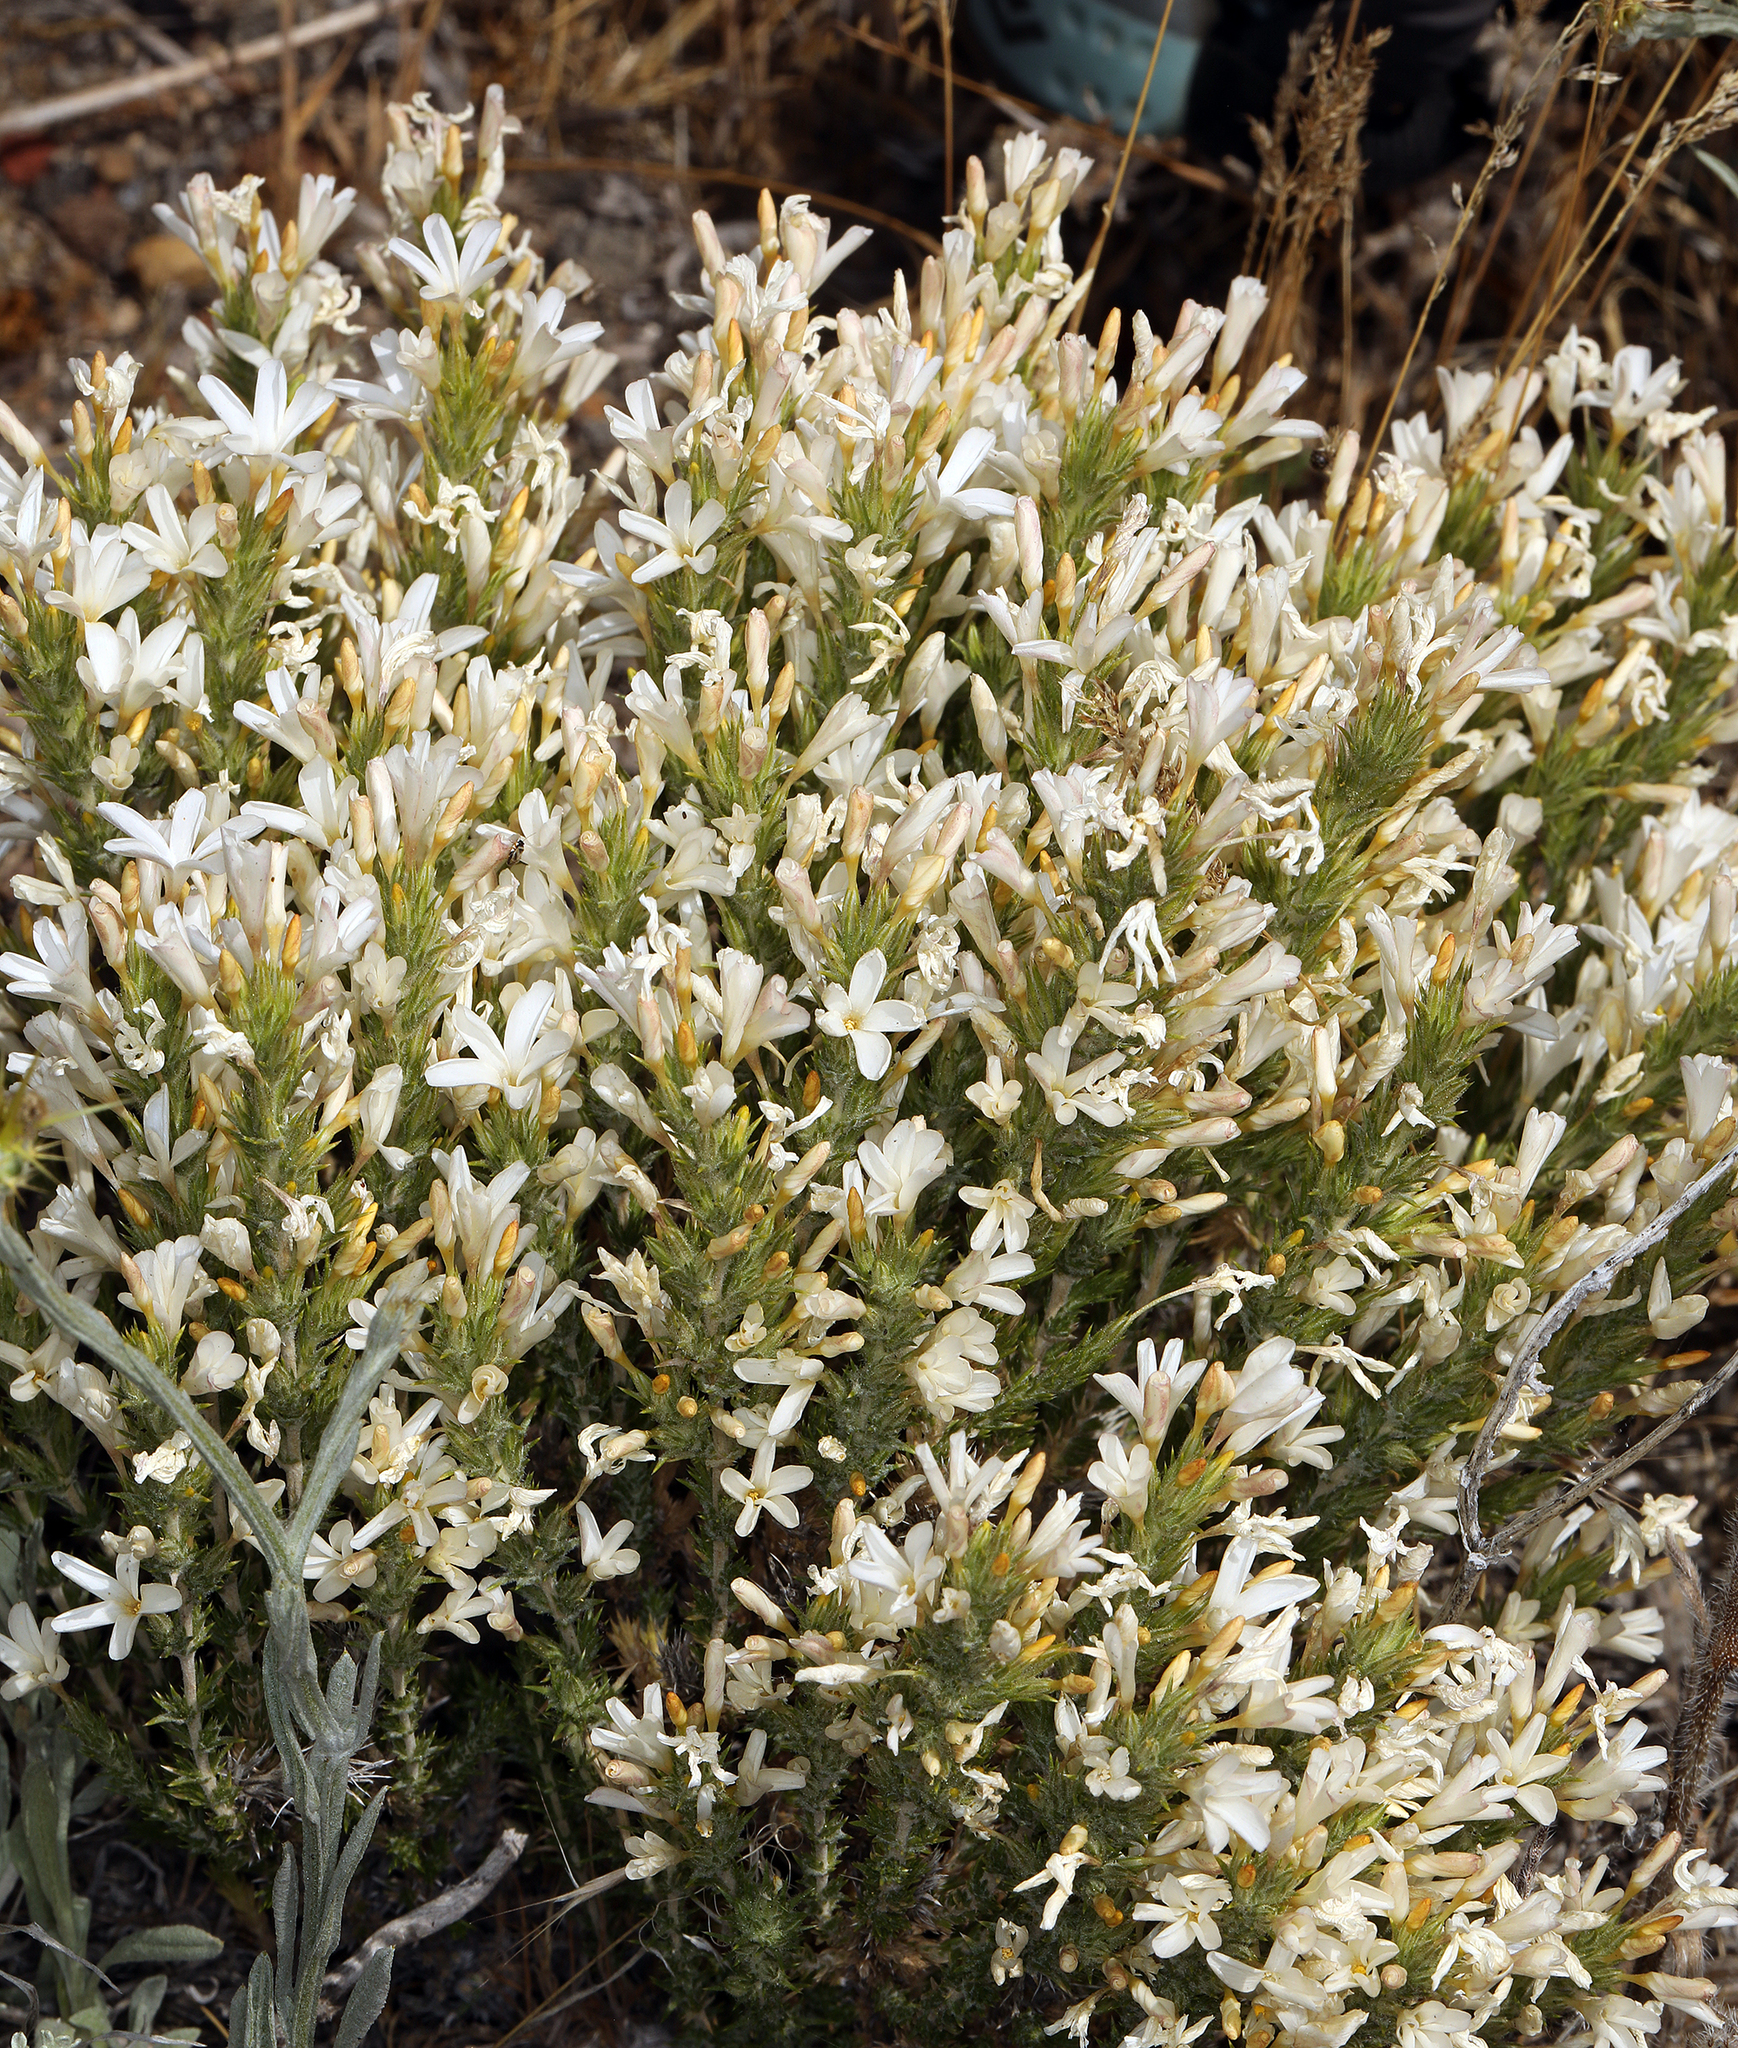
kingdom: Plantae
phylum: Tracheophyta
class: Magnoliopsida
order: Ericales
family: Polemoniaceae
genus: Linanthus
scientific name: Linanthus pungens
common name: Granite prickly phlox
